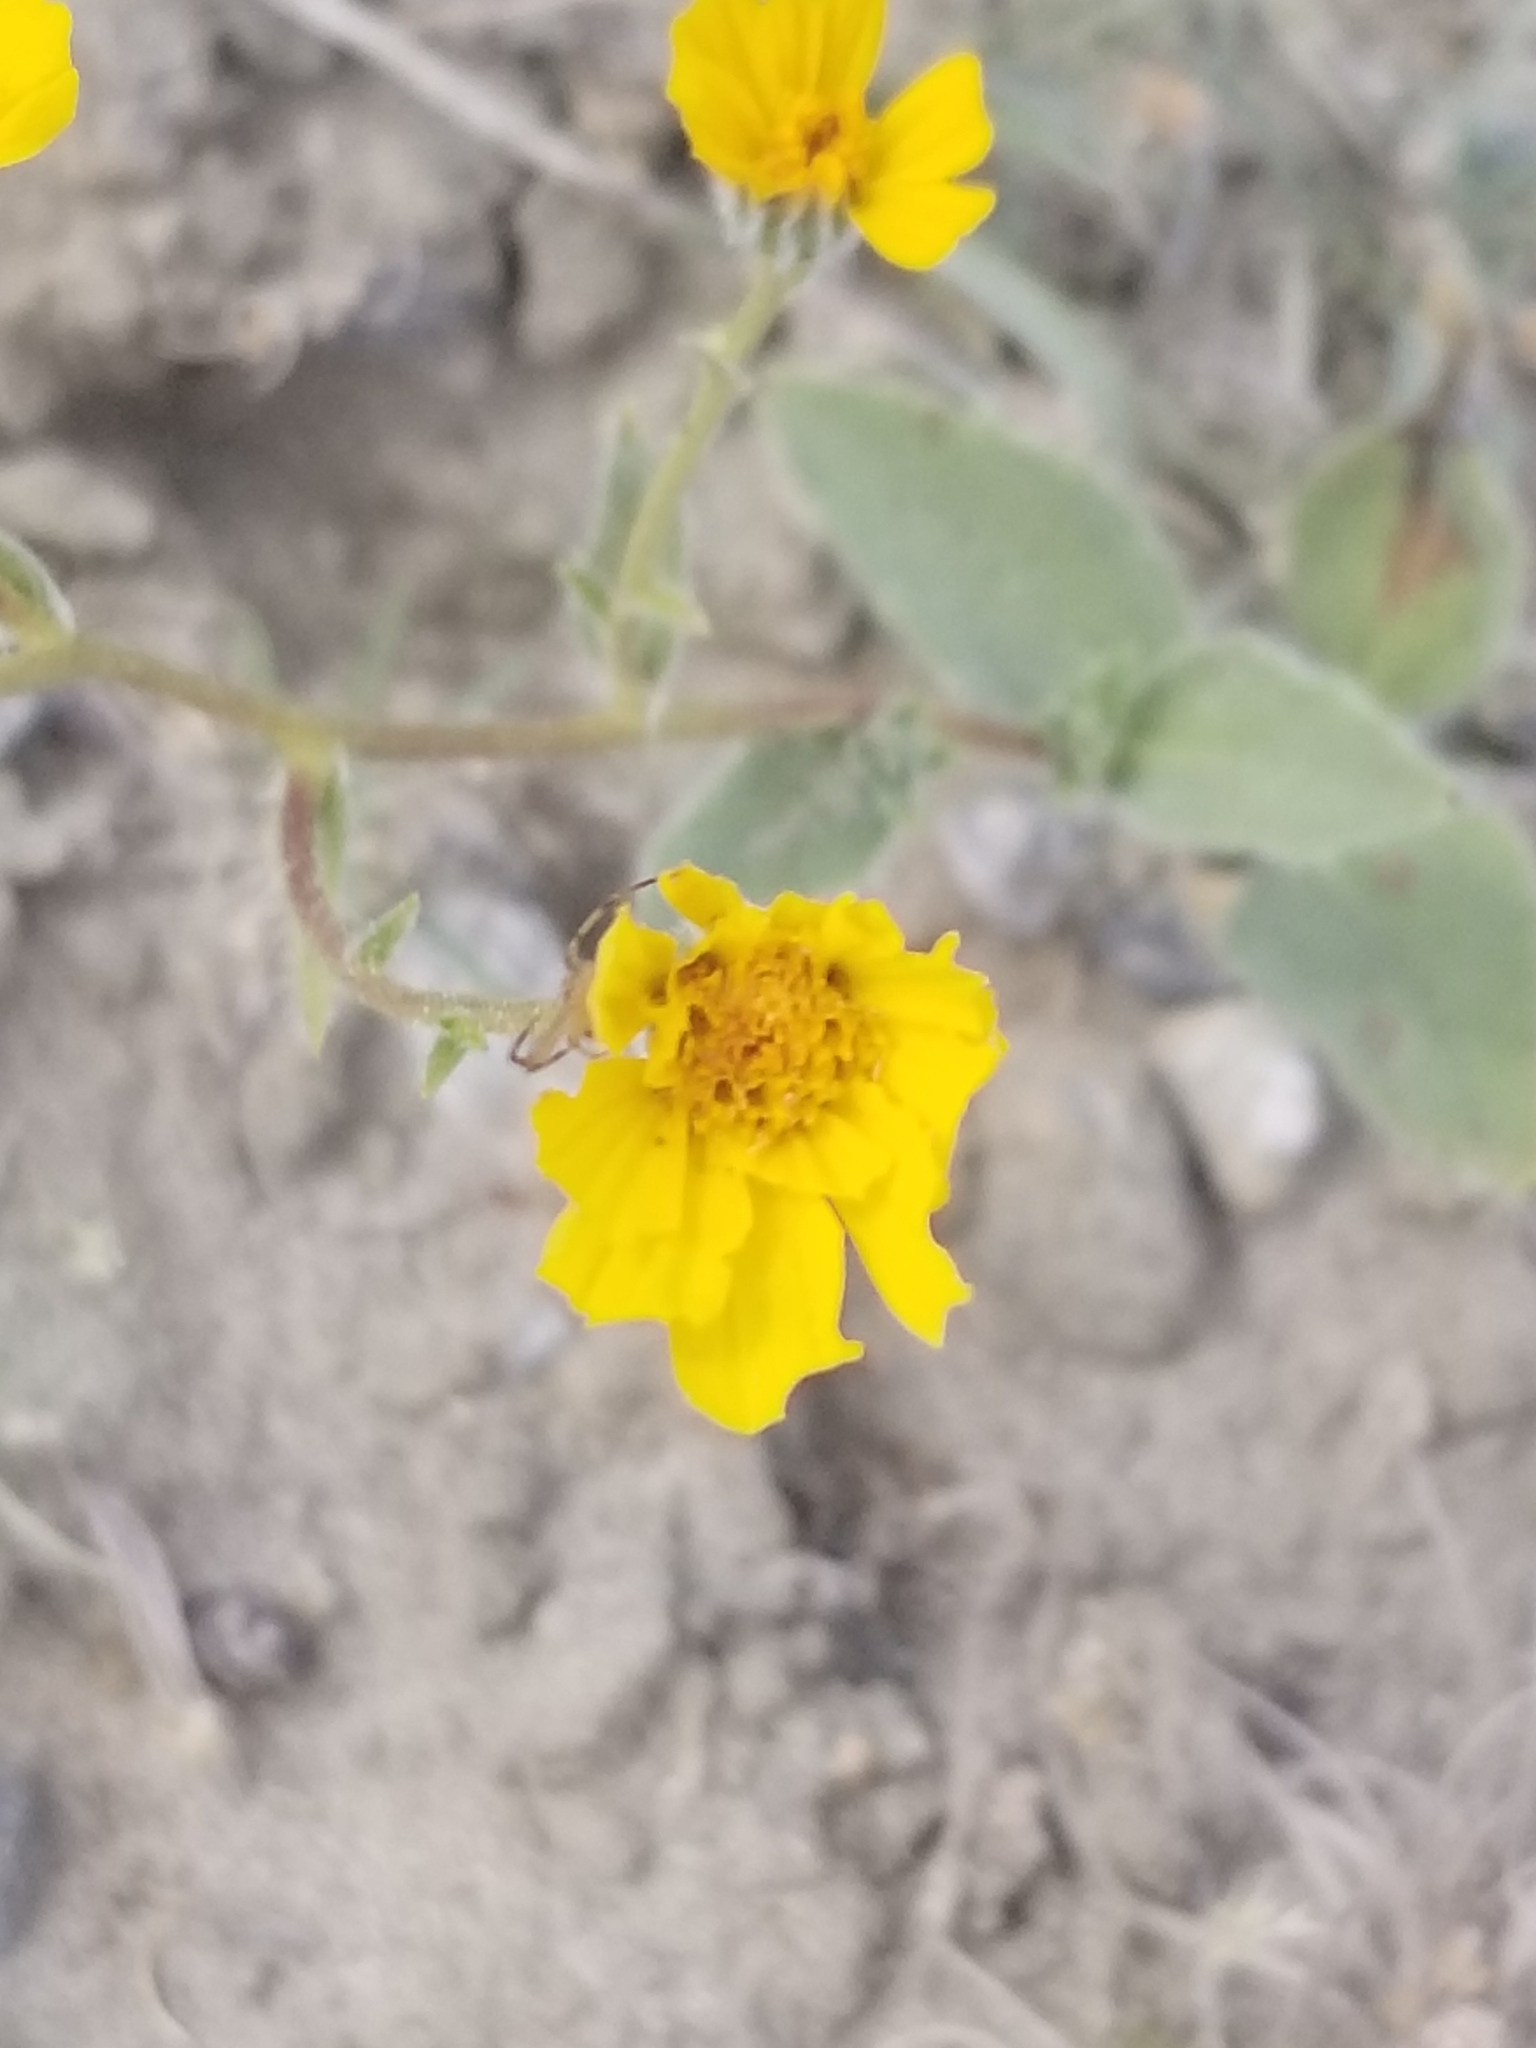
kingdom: Plantae
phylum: Tracheophyta
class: Magnoliopsida
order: Asterales
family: Asteraceae
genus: Geraea
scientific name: Geraea canescens
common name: Desert-gold
